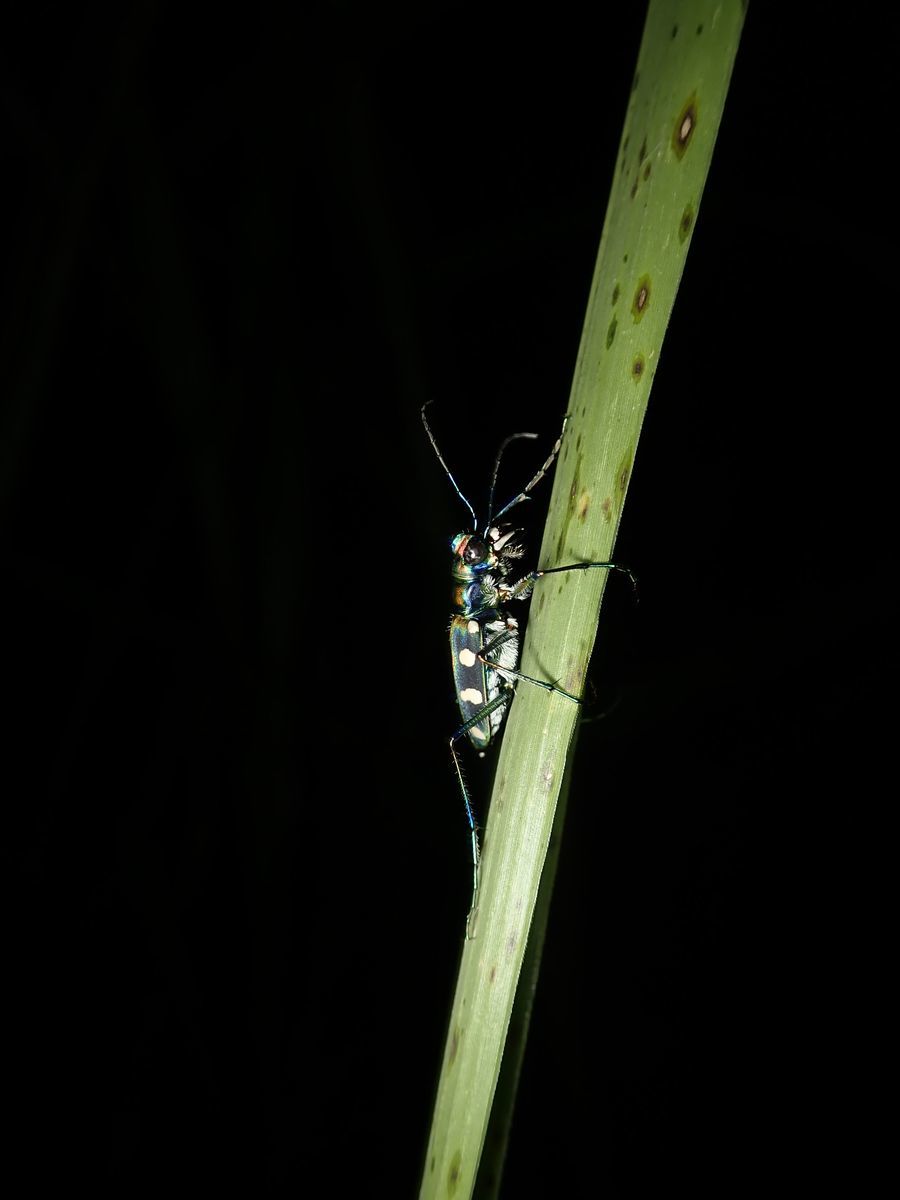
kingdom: Animalia
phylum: Arthropoda
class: Insecta
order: Coleoptera
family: Carabidae
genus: Cicindela
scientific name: Cicindela batesi
